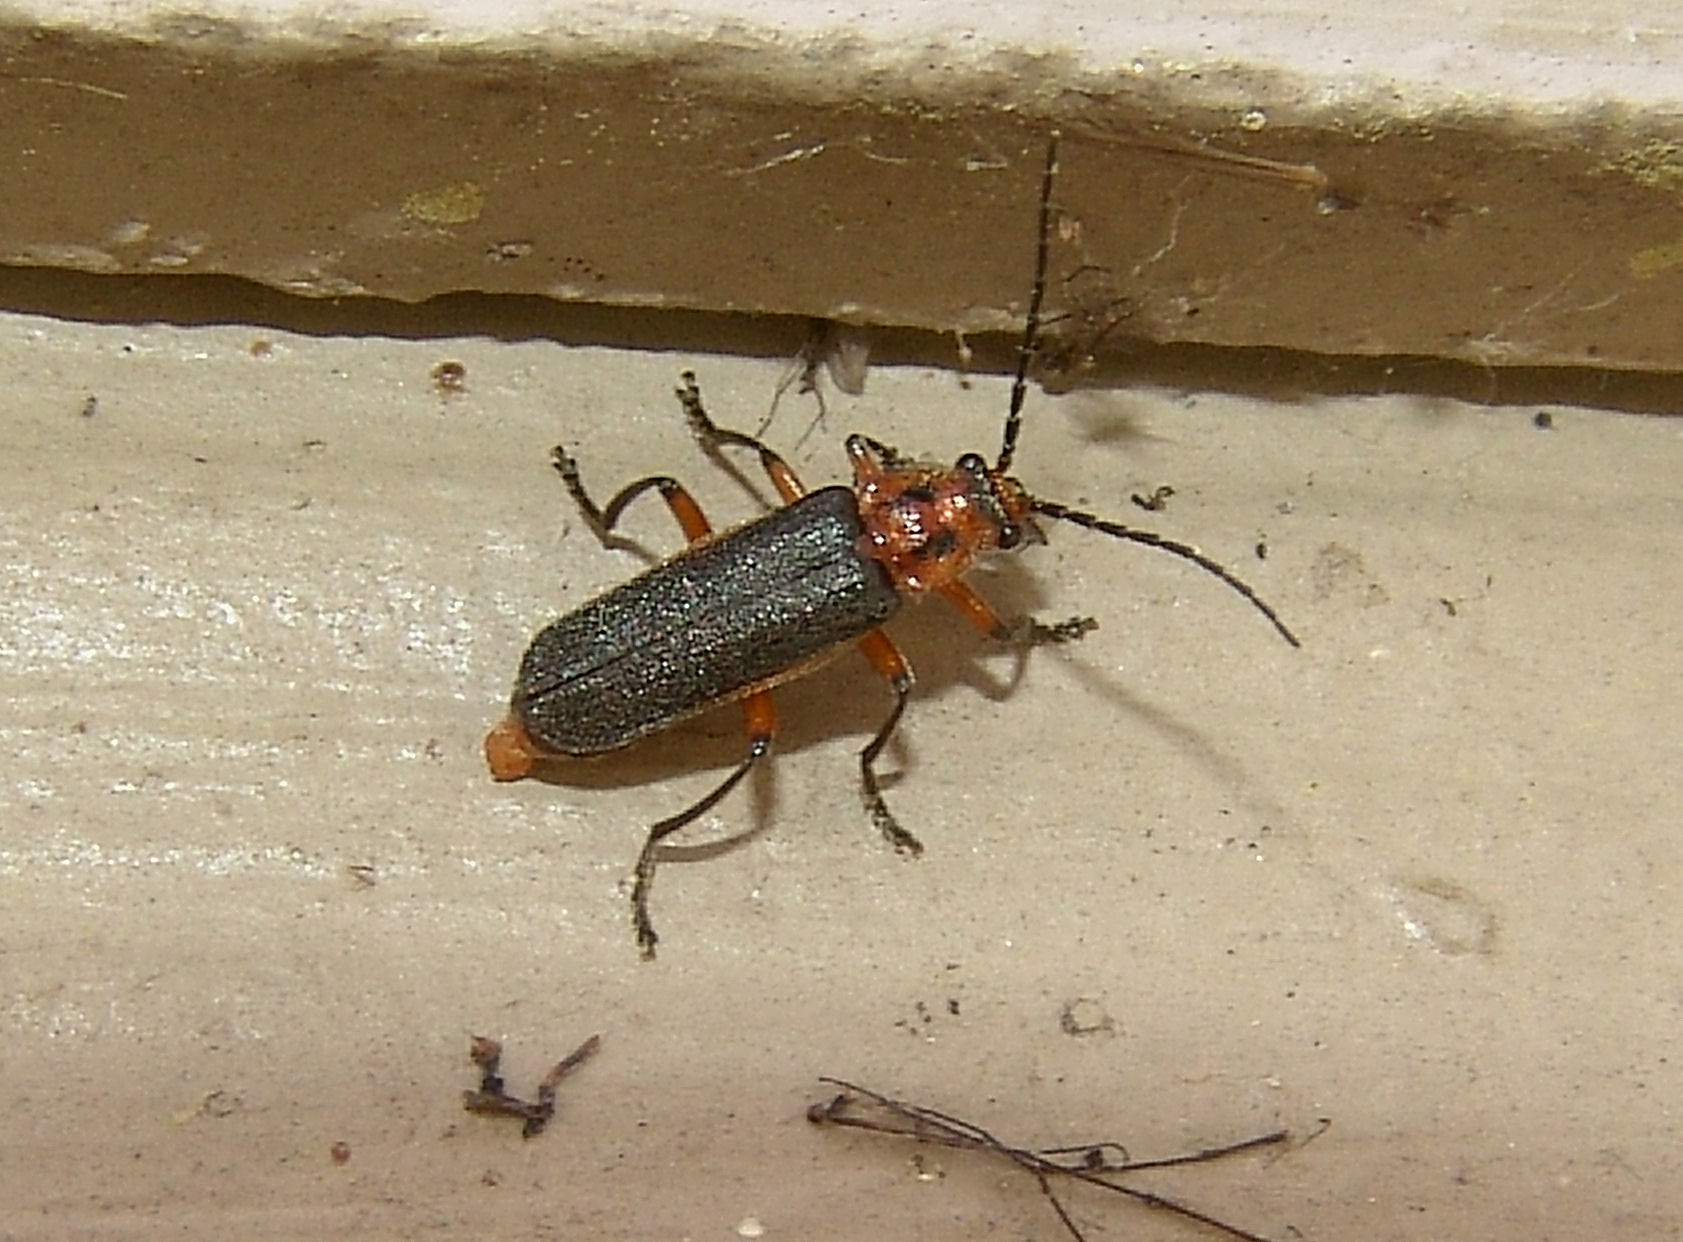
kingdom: Animalia
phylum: Arthropoda
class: Insecta
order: Coleoptera
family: Cantharidae
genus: Atalantycha
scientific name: Atalantycha bilineata
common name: Two-lined leatherwing
